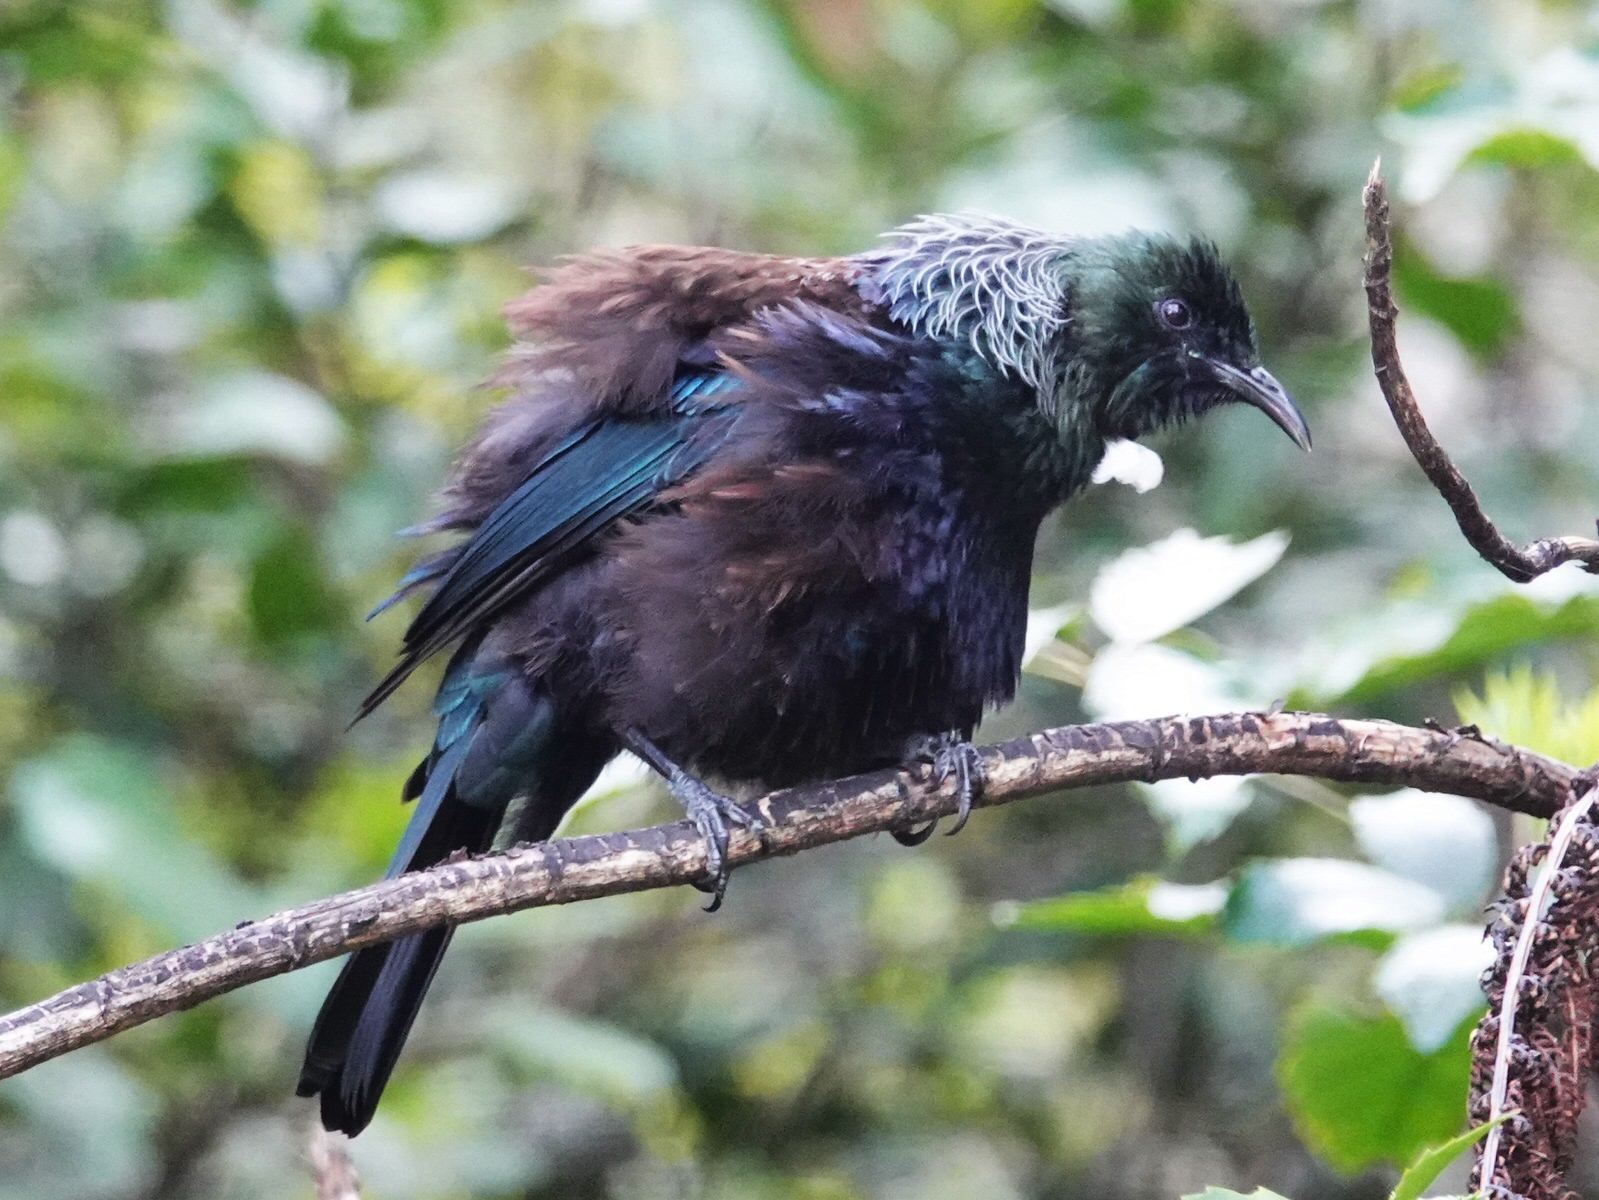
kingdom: Animalia
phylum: Chordata
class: Aves
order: Passeriformes
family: Meliphagidae
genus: Prosthemadera
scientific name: Prosthemadera novaeseelandiae
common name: Tui
